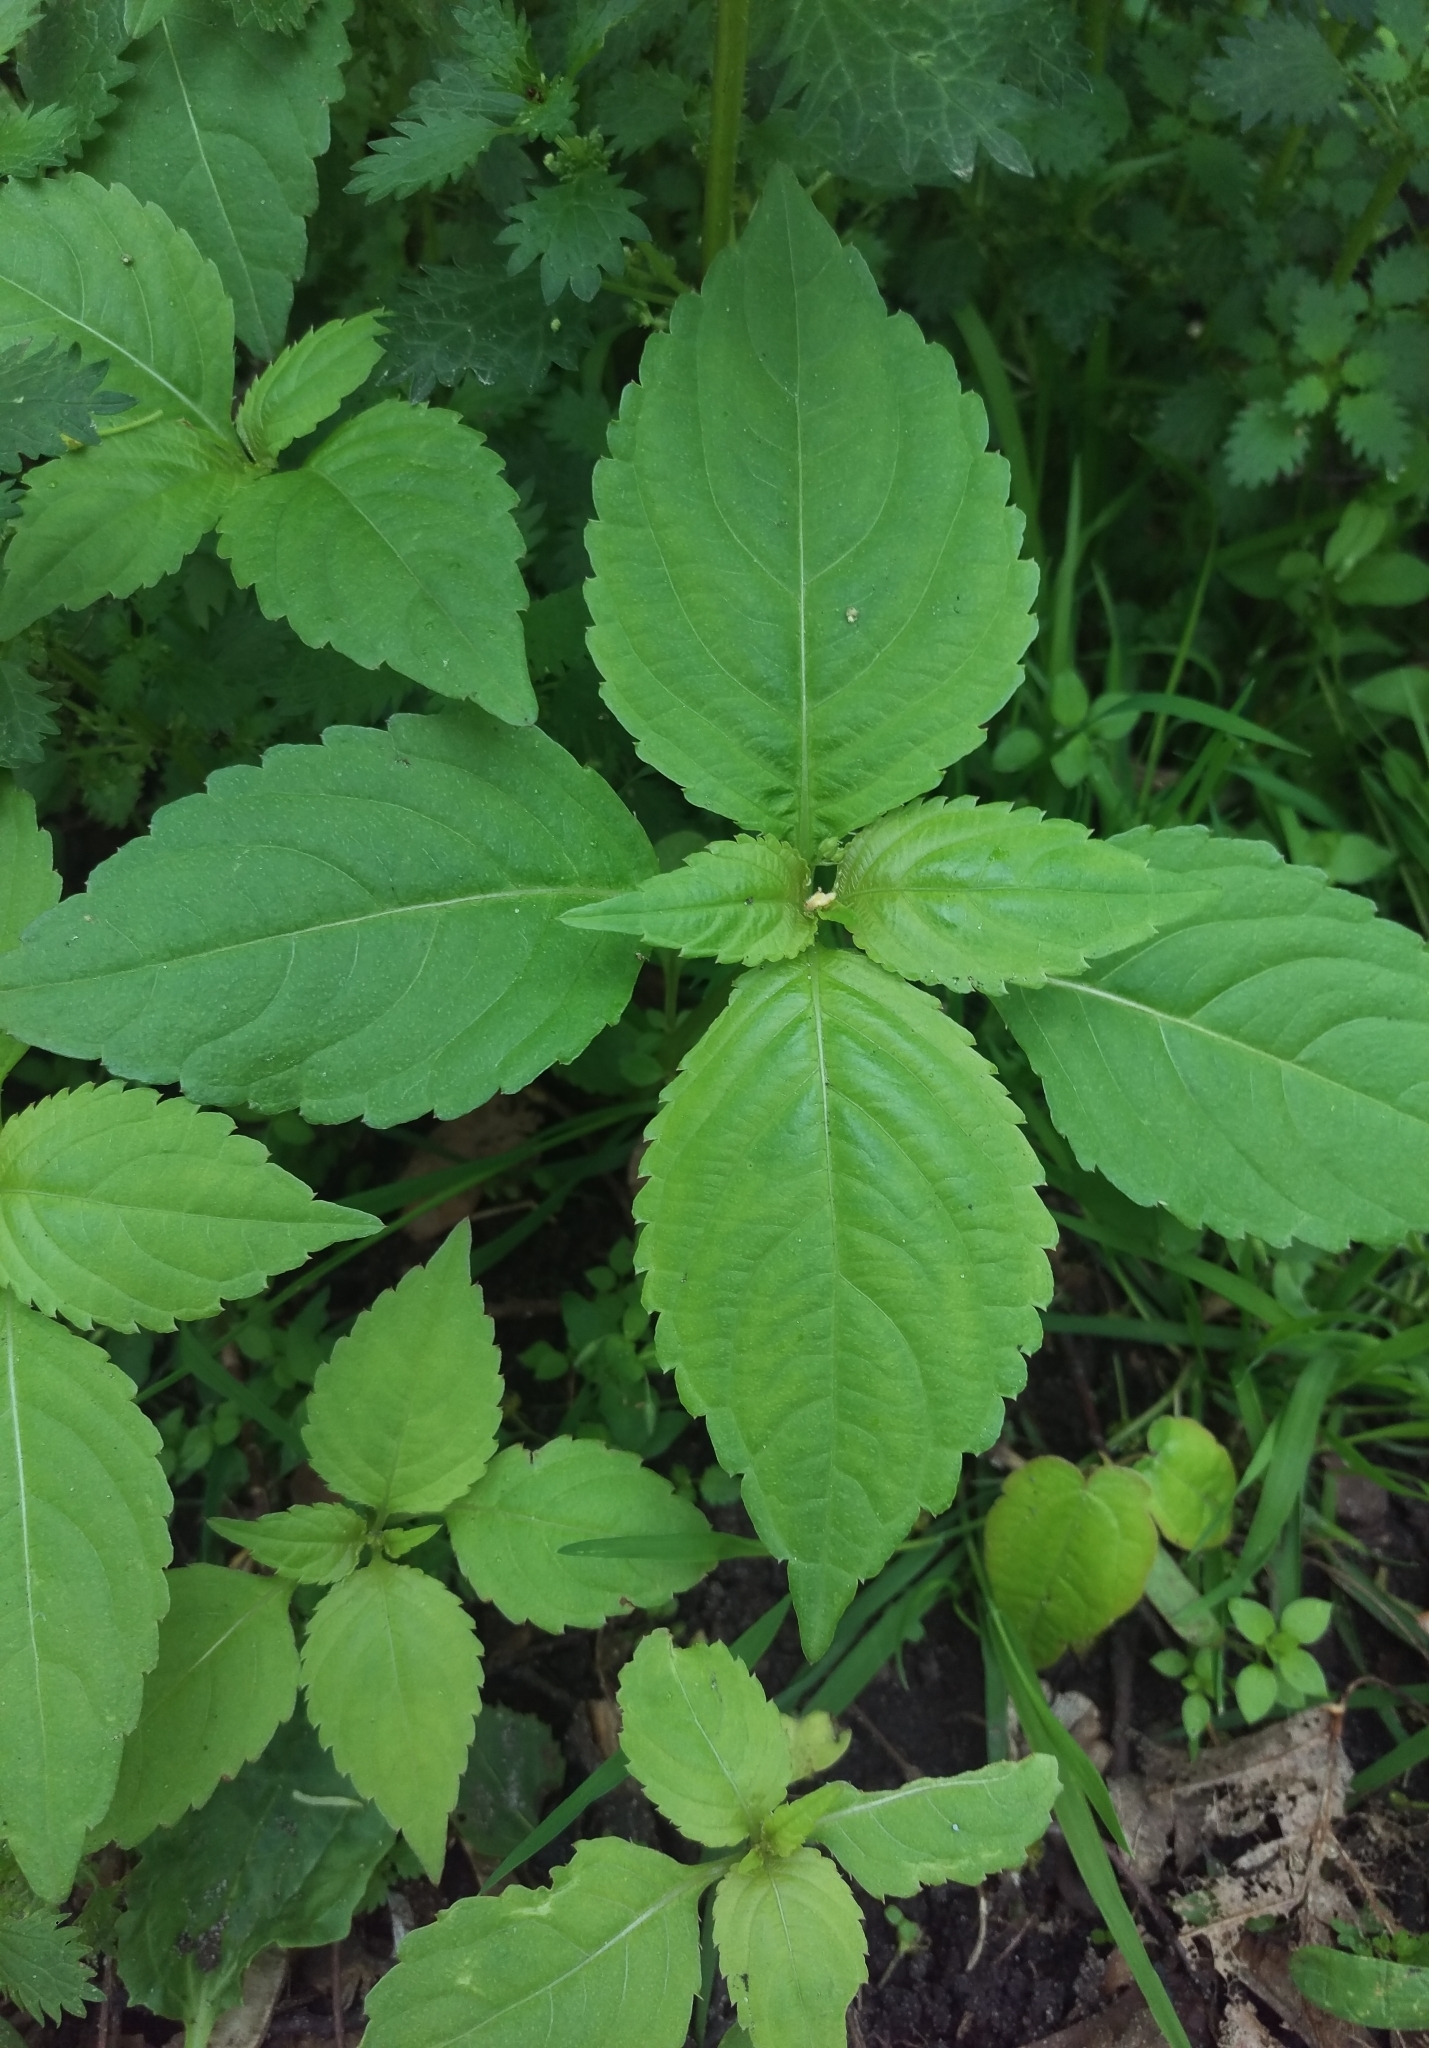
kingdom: Plantae
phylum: Tracheophyta
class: Magnoliopsida
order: Ericales
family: Balsaminaceae
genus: Impatiens
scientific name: Impatiens parviflora
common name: Small balsam
